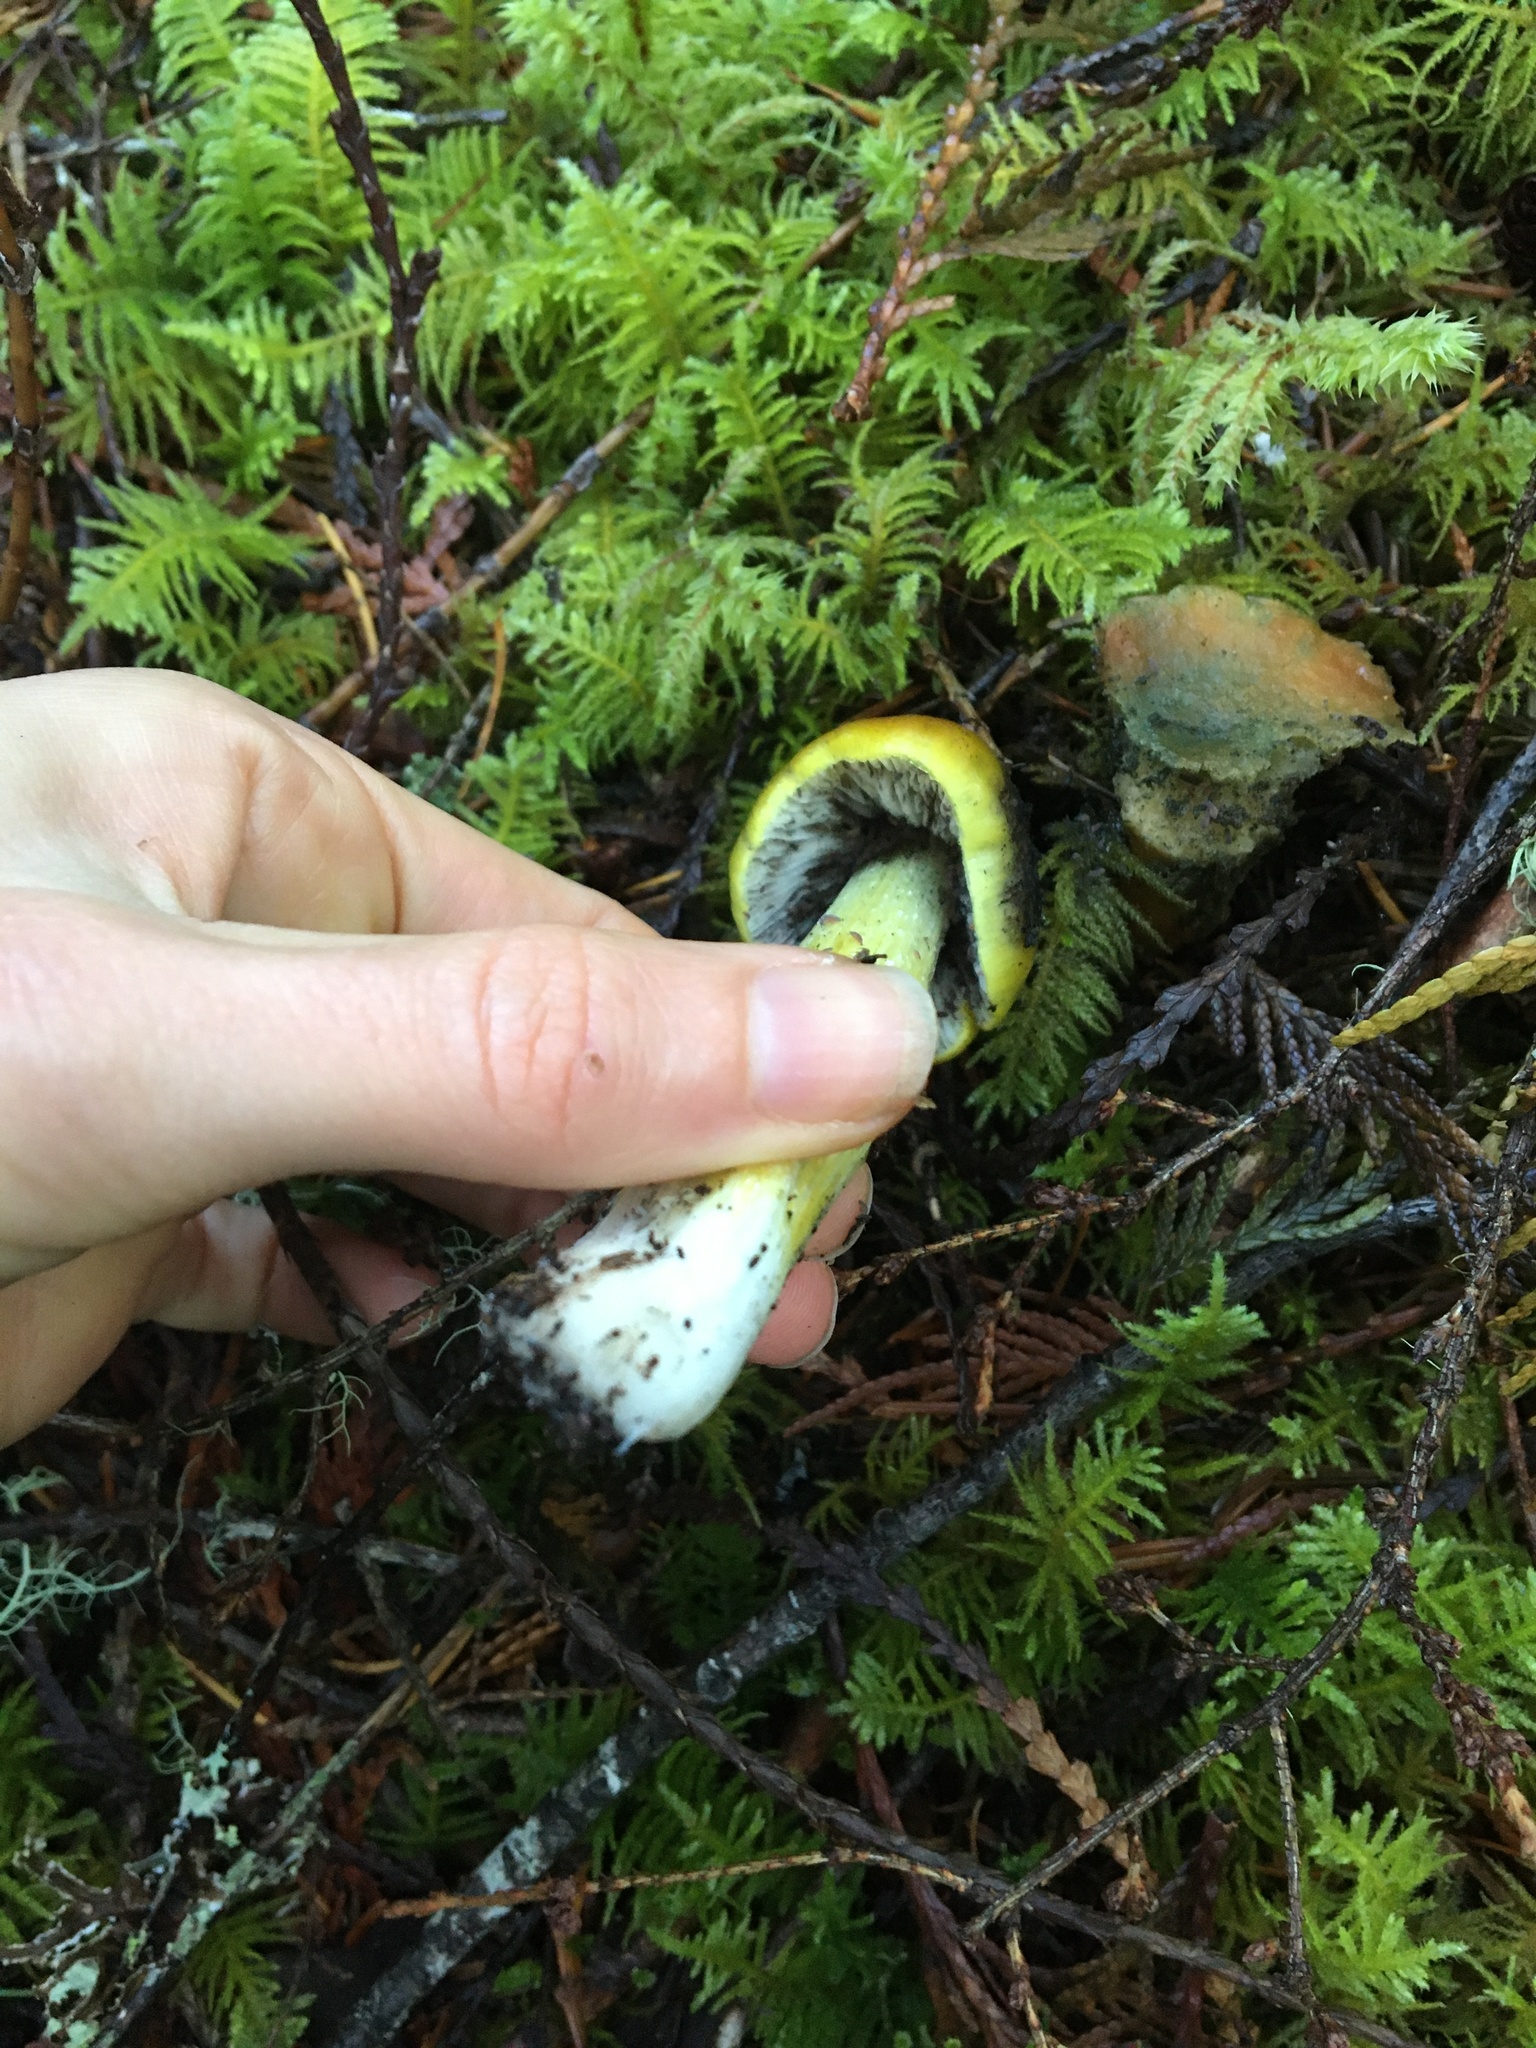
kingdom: Fungi
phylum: Basidiomycota
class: Agaricomycetes
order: Agaricales
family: Hygrophoraceae
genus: Hygrocybe
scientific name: Hygrocybe singeri
